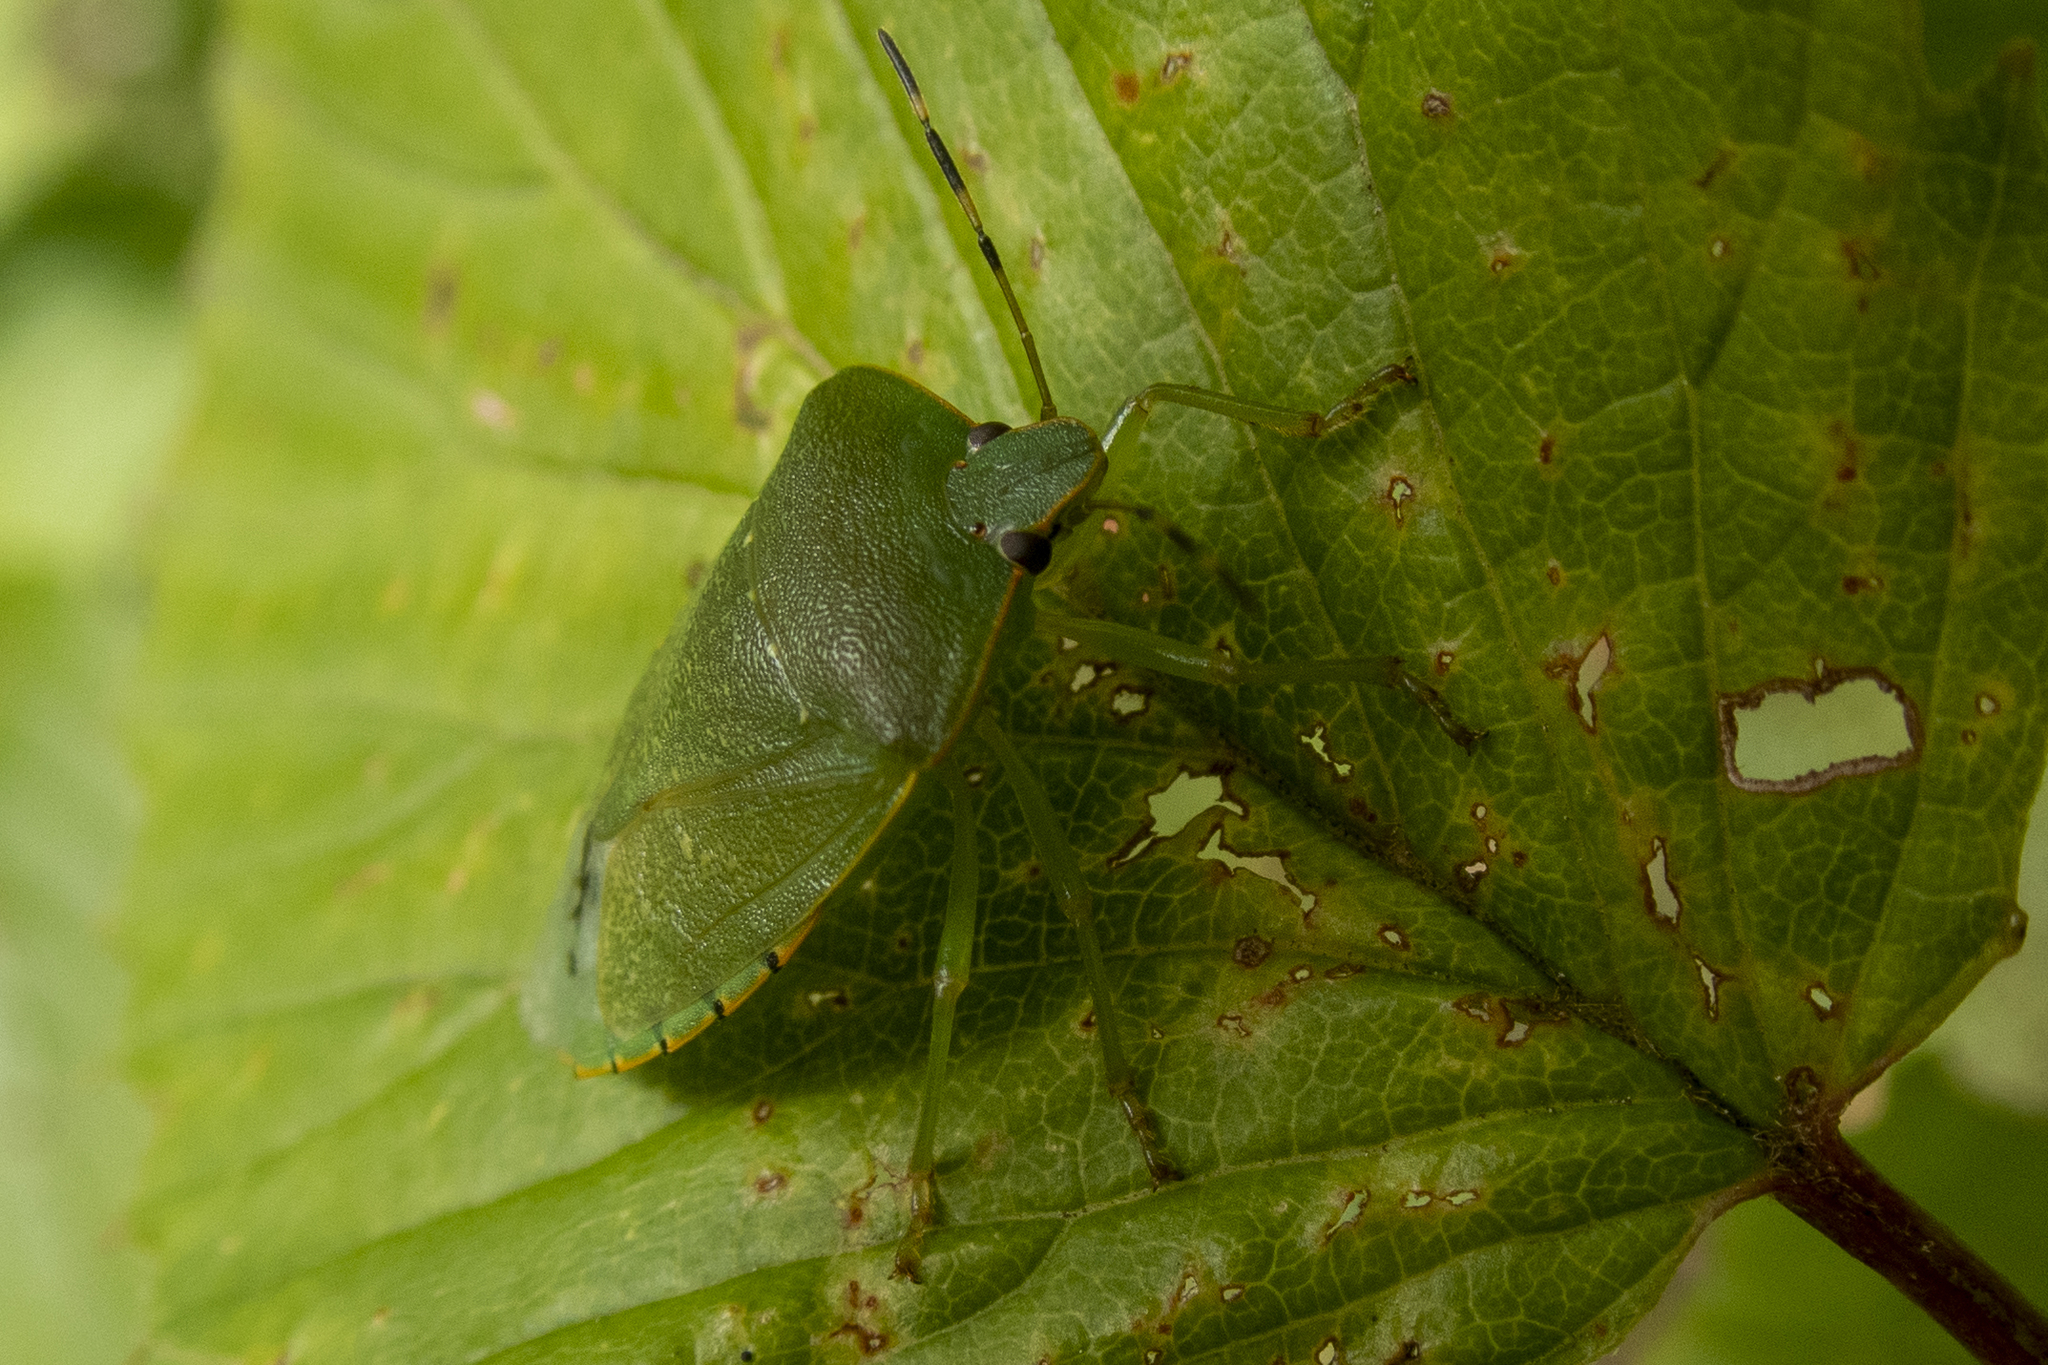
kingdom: Animalia
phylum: Arthropoda
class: Insecta
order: Hemiptera
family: Pentatomidae
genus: Chinavia
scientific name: Chinavia hilaris
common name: Green stink bug
